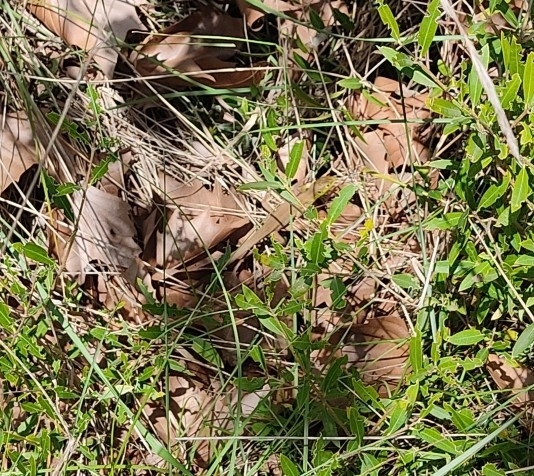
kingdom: Animalia
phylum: Chordata
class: Squamata
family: Lacertidae
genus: Lacerta
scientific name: Lacerta bilineata
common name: Western green lizard
